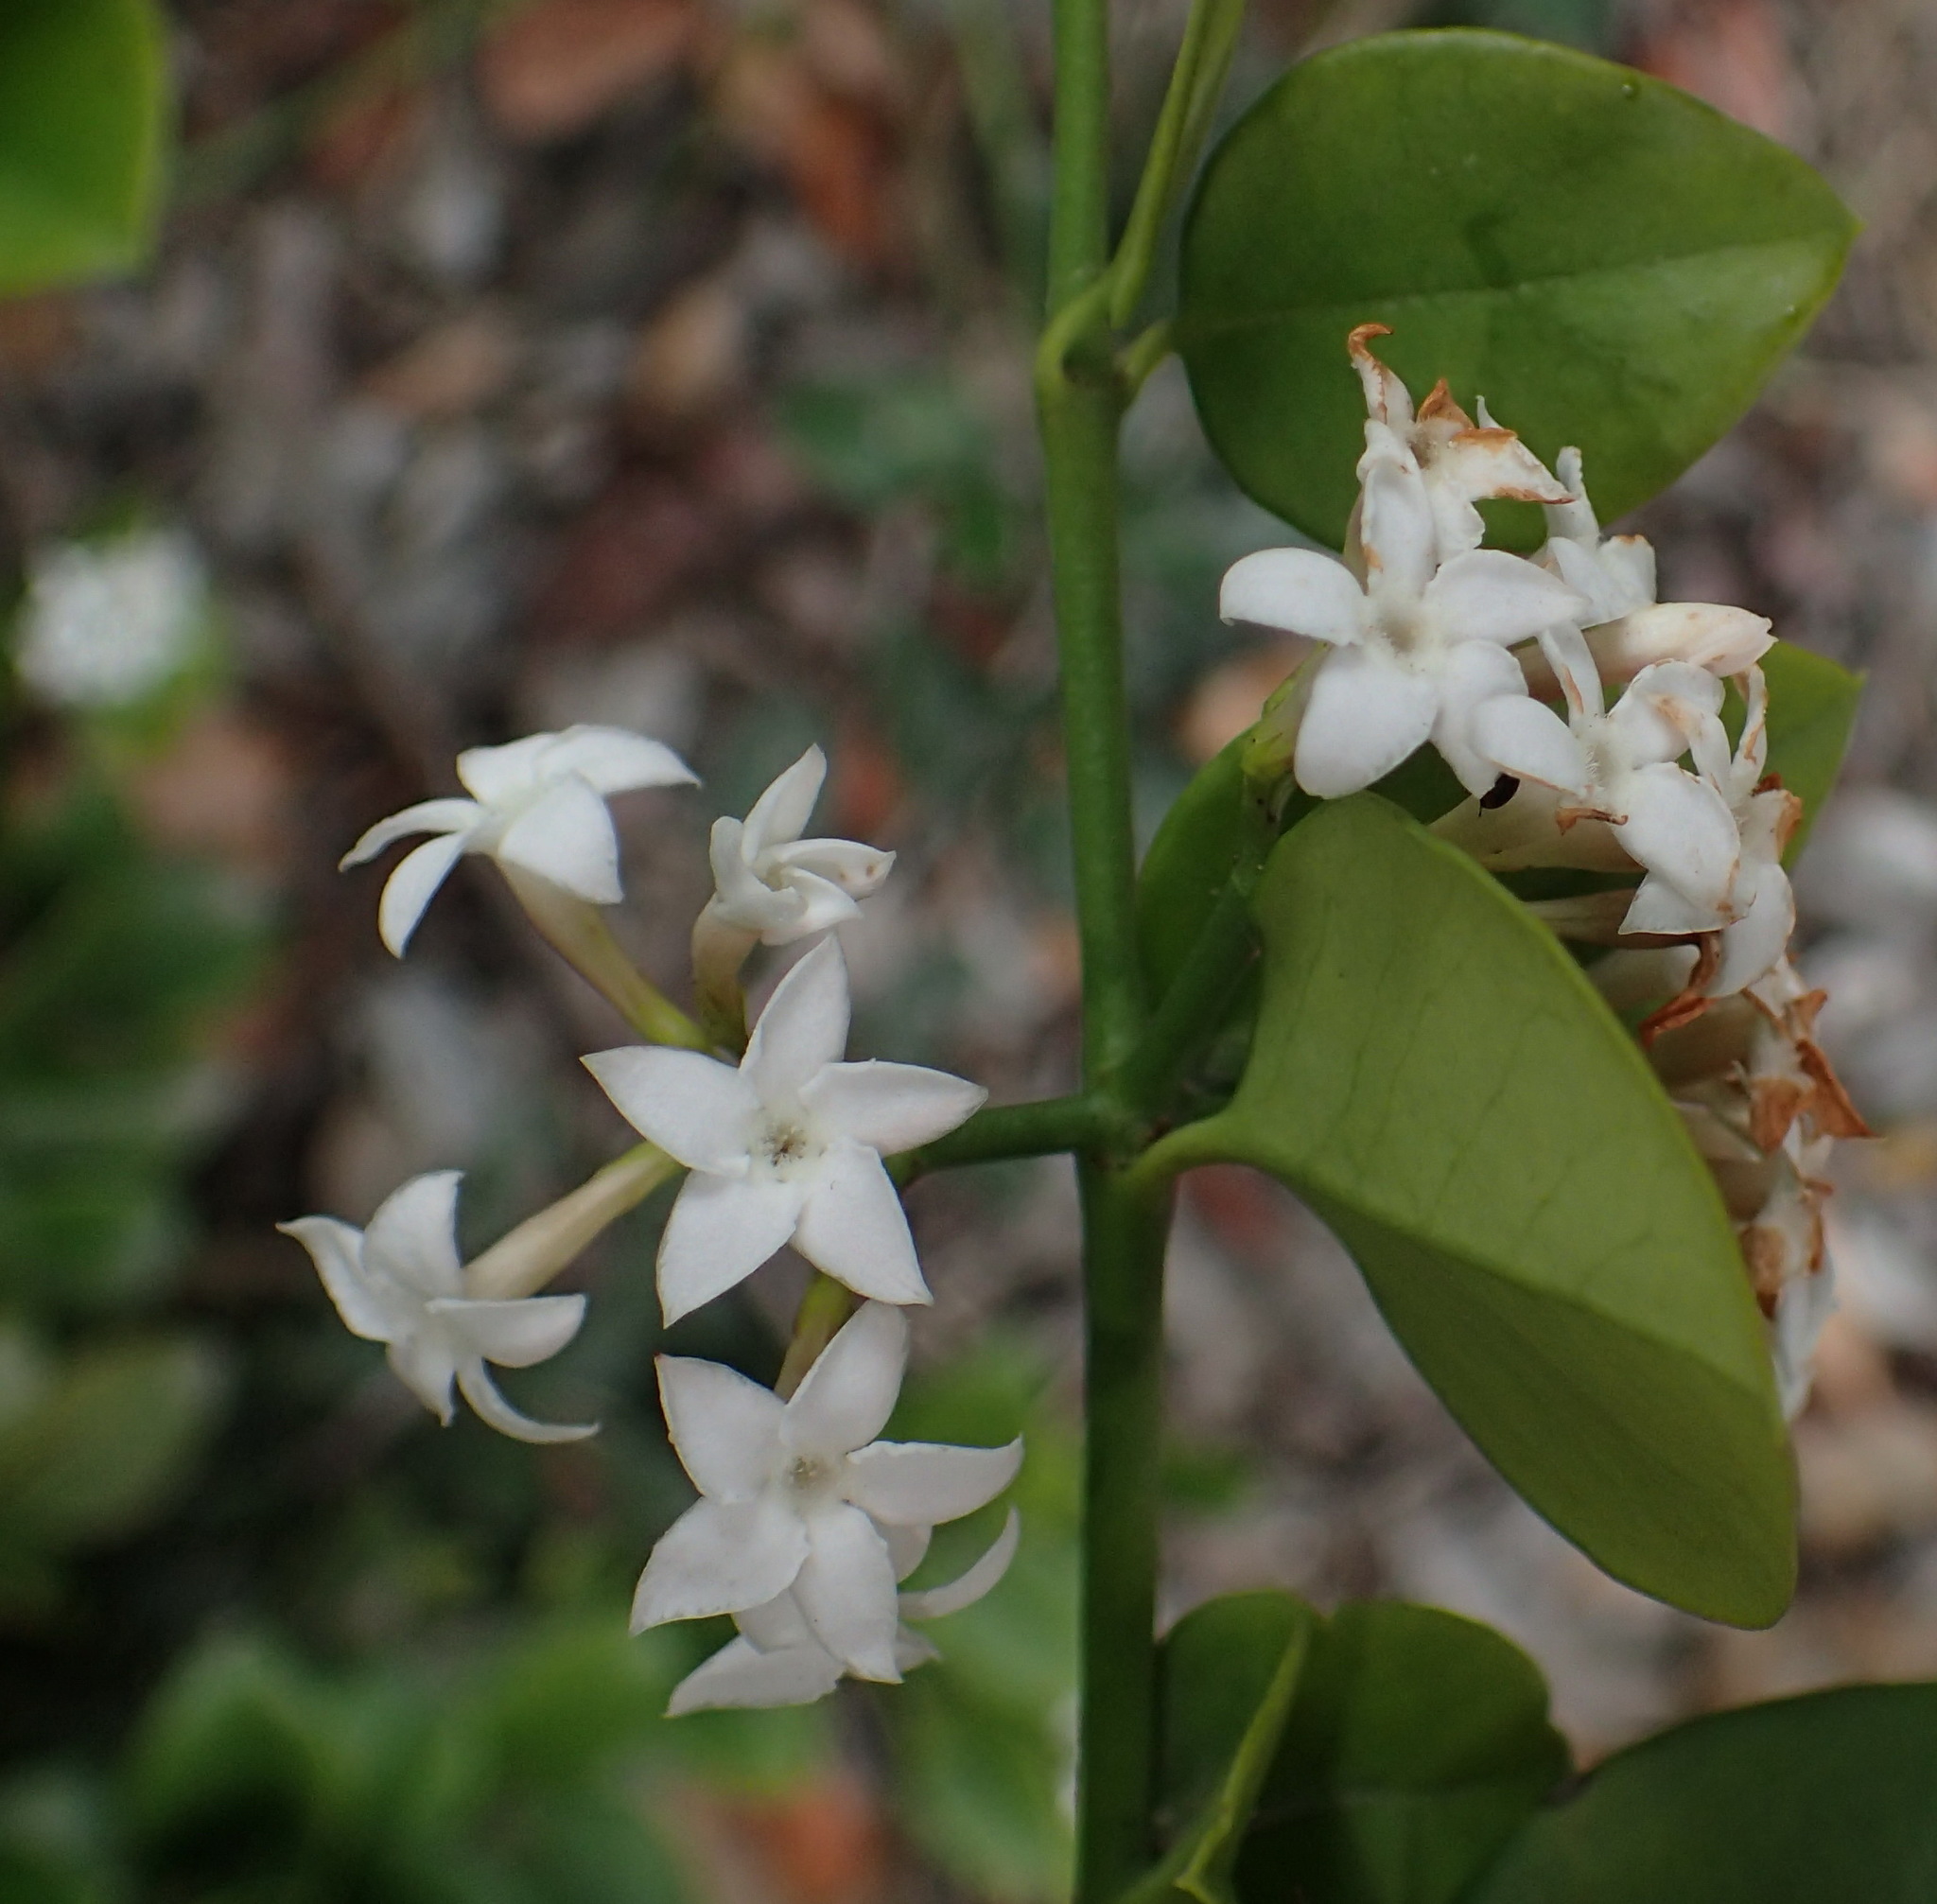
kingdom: Plantae
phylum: Tracheophyta
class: Magnoliopsida
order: Gentianales
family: Apocynaceae
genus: Carissa
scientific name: Carissa bispinosa
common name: Forest num-num
